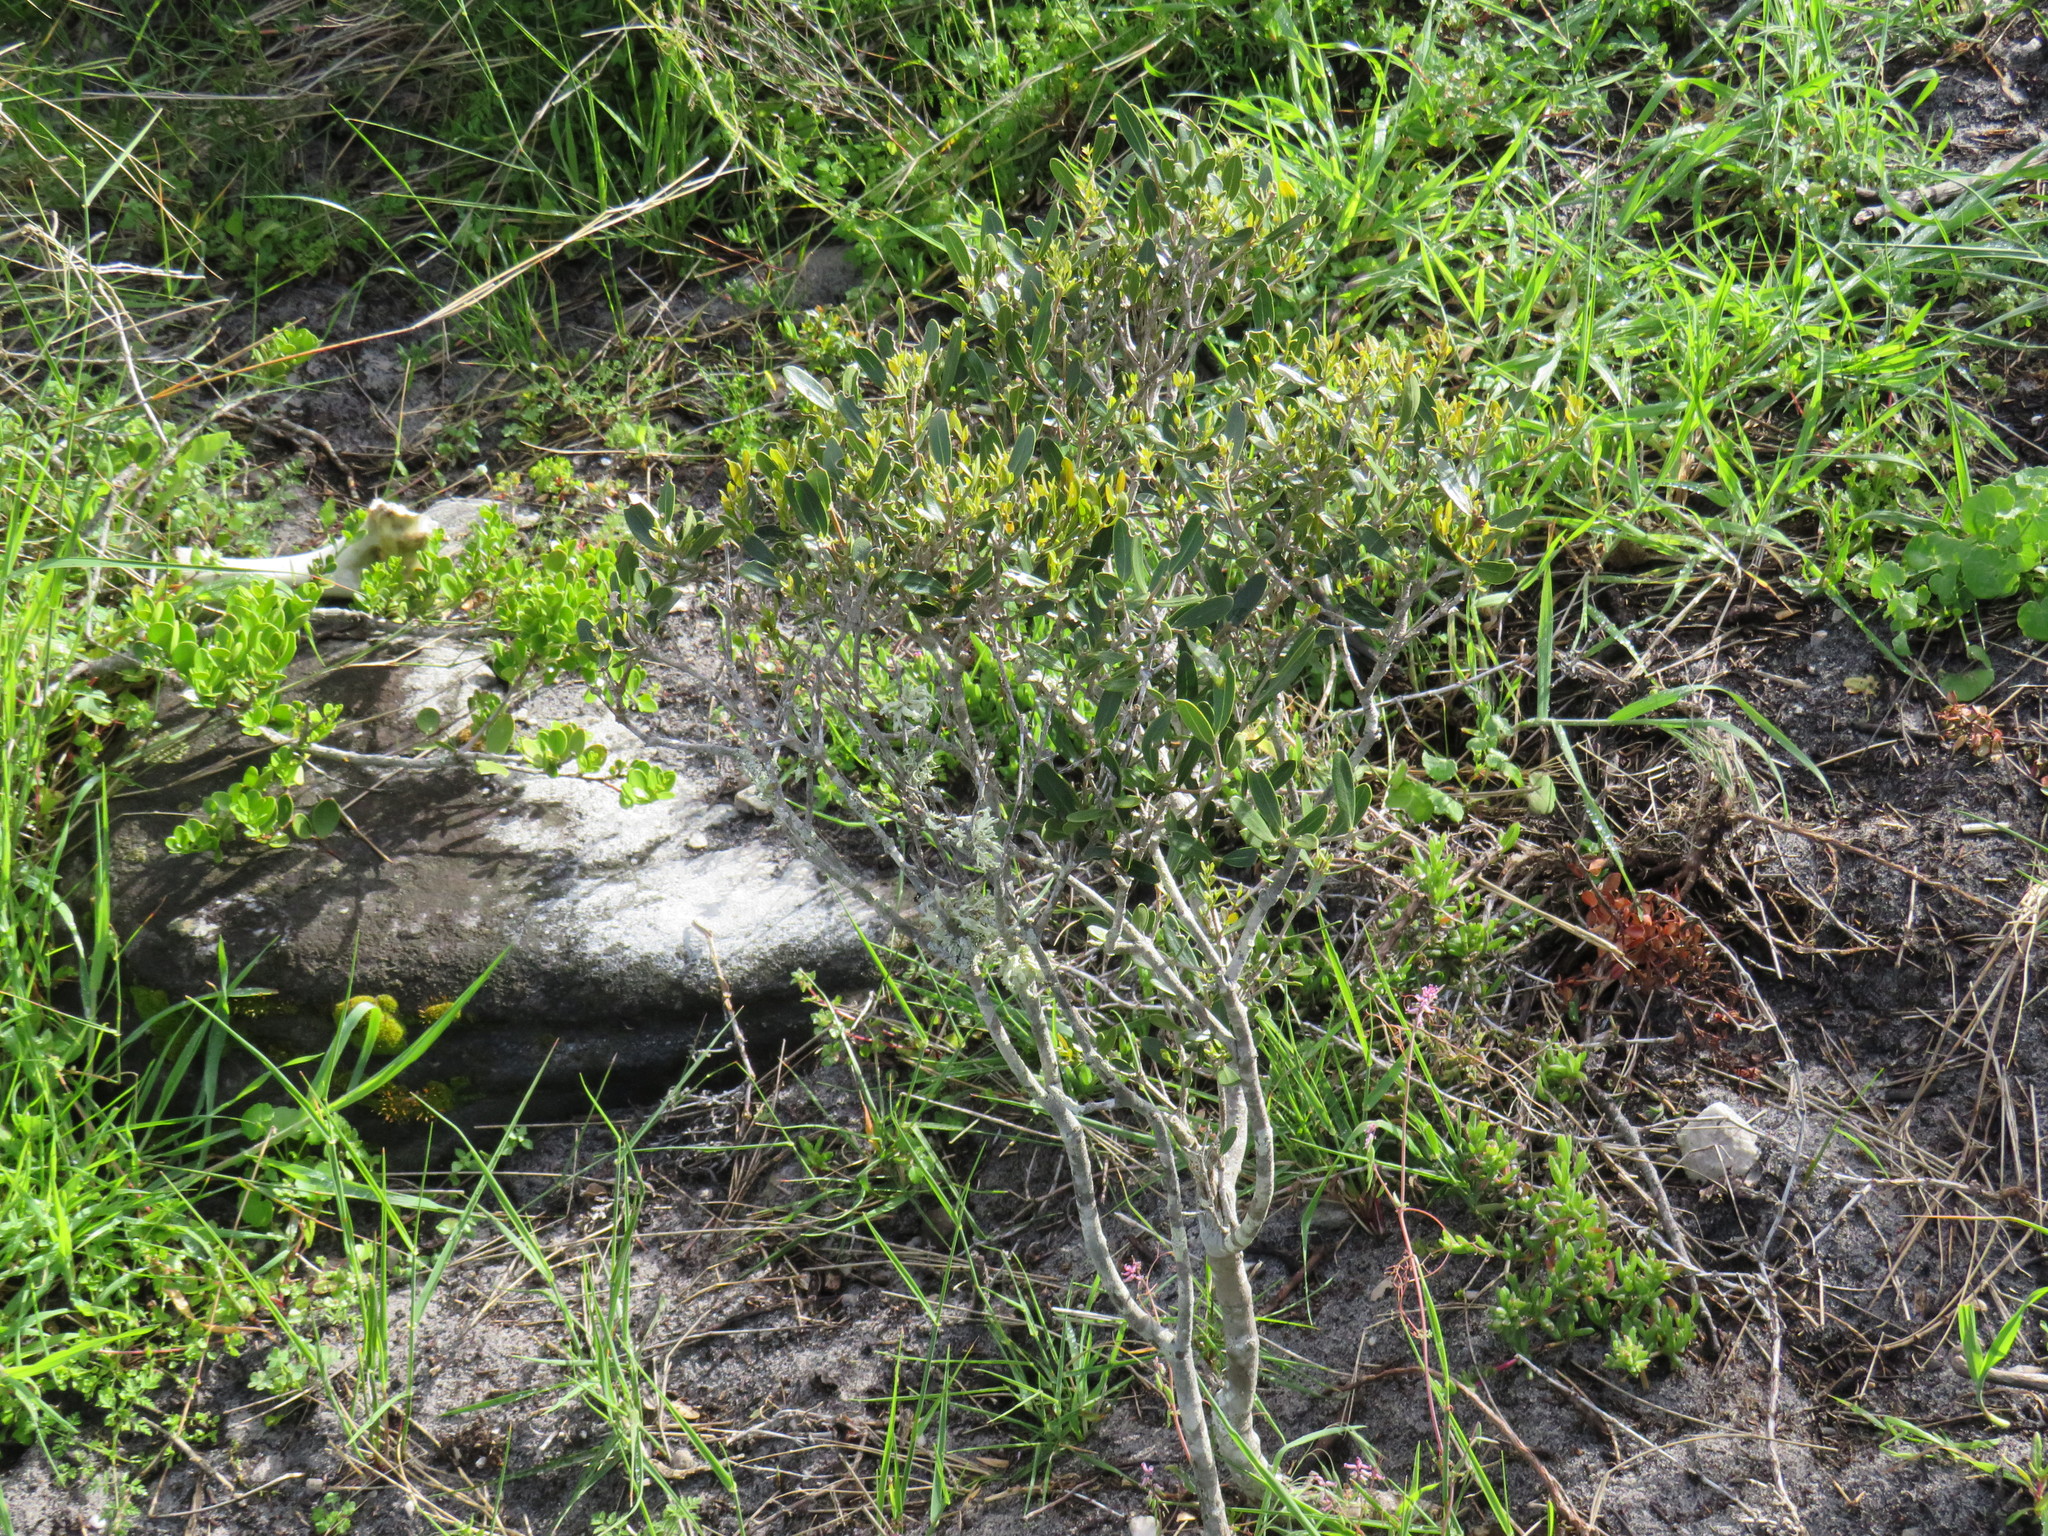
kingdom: Plantae
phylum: Tracheophyta
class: Magnoliopsida
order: Lamiales
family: Oleaceae
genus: Olea
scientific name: Olea exasperata
